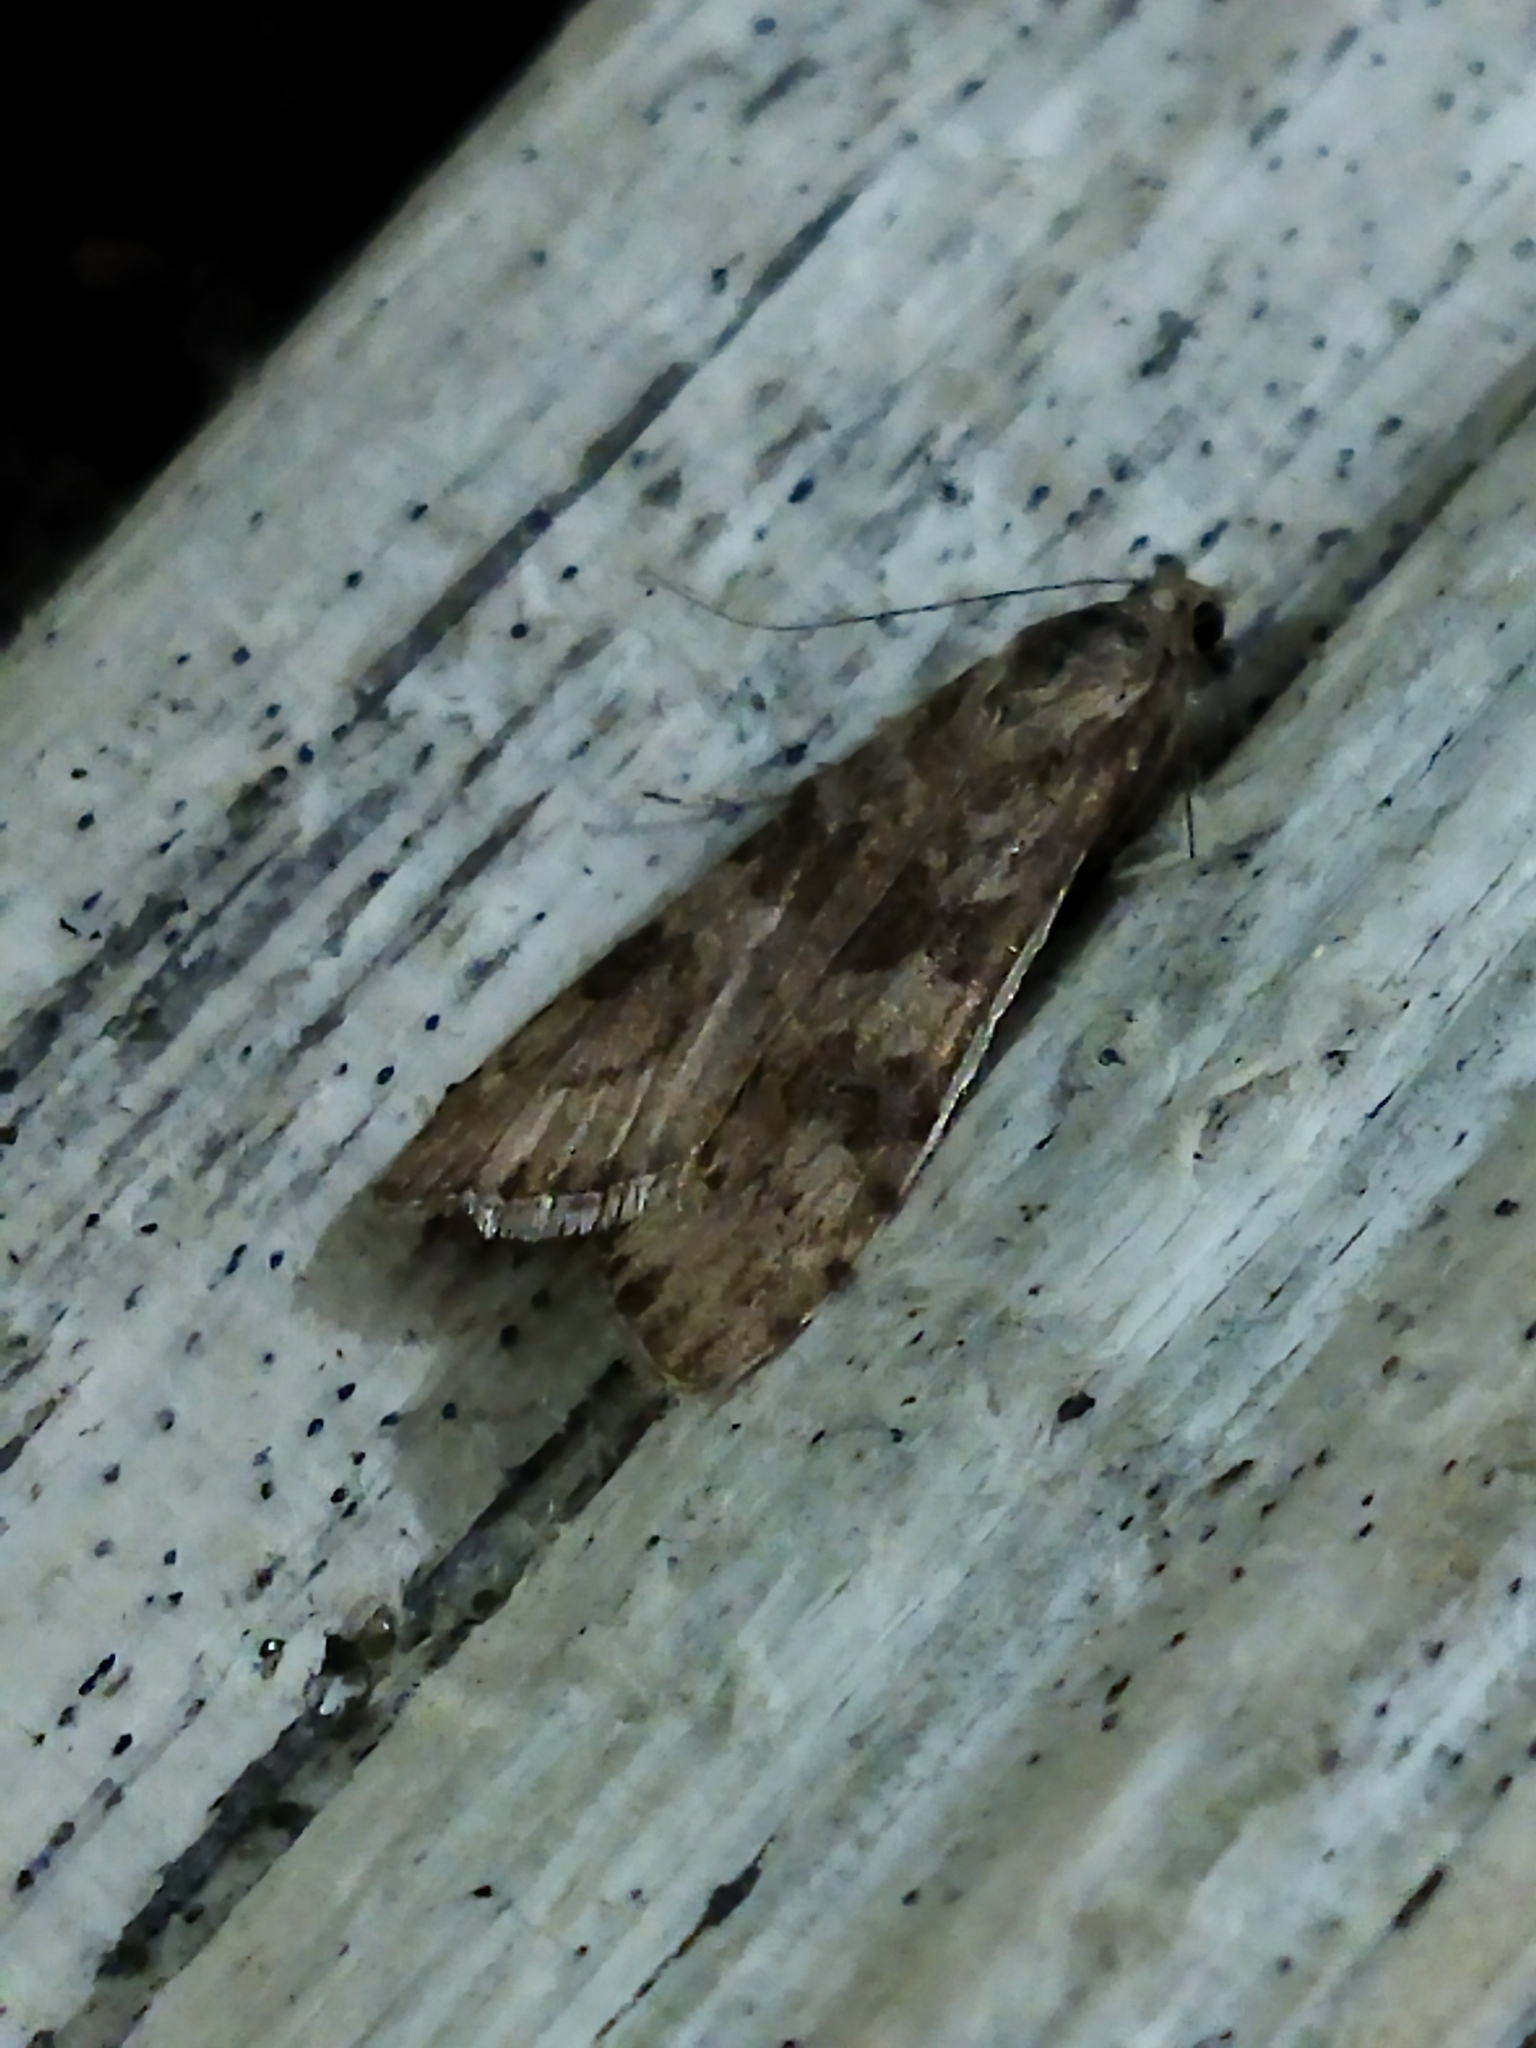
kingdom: Animalia
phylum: Arthropoda
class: Insecta
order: Lepidoptera
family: Crambidae
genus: Nomophila
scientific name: Nomophila noctuella
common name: Rush veneer
